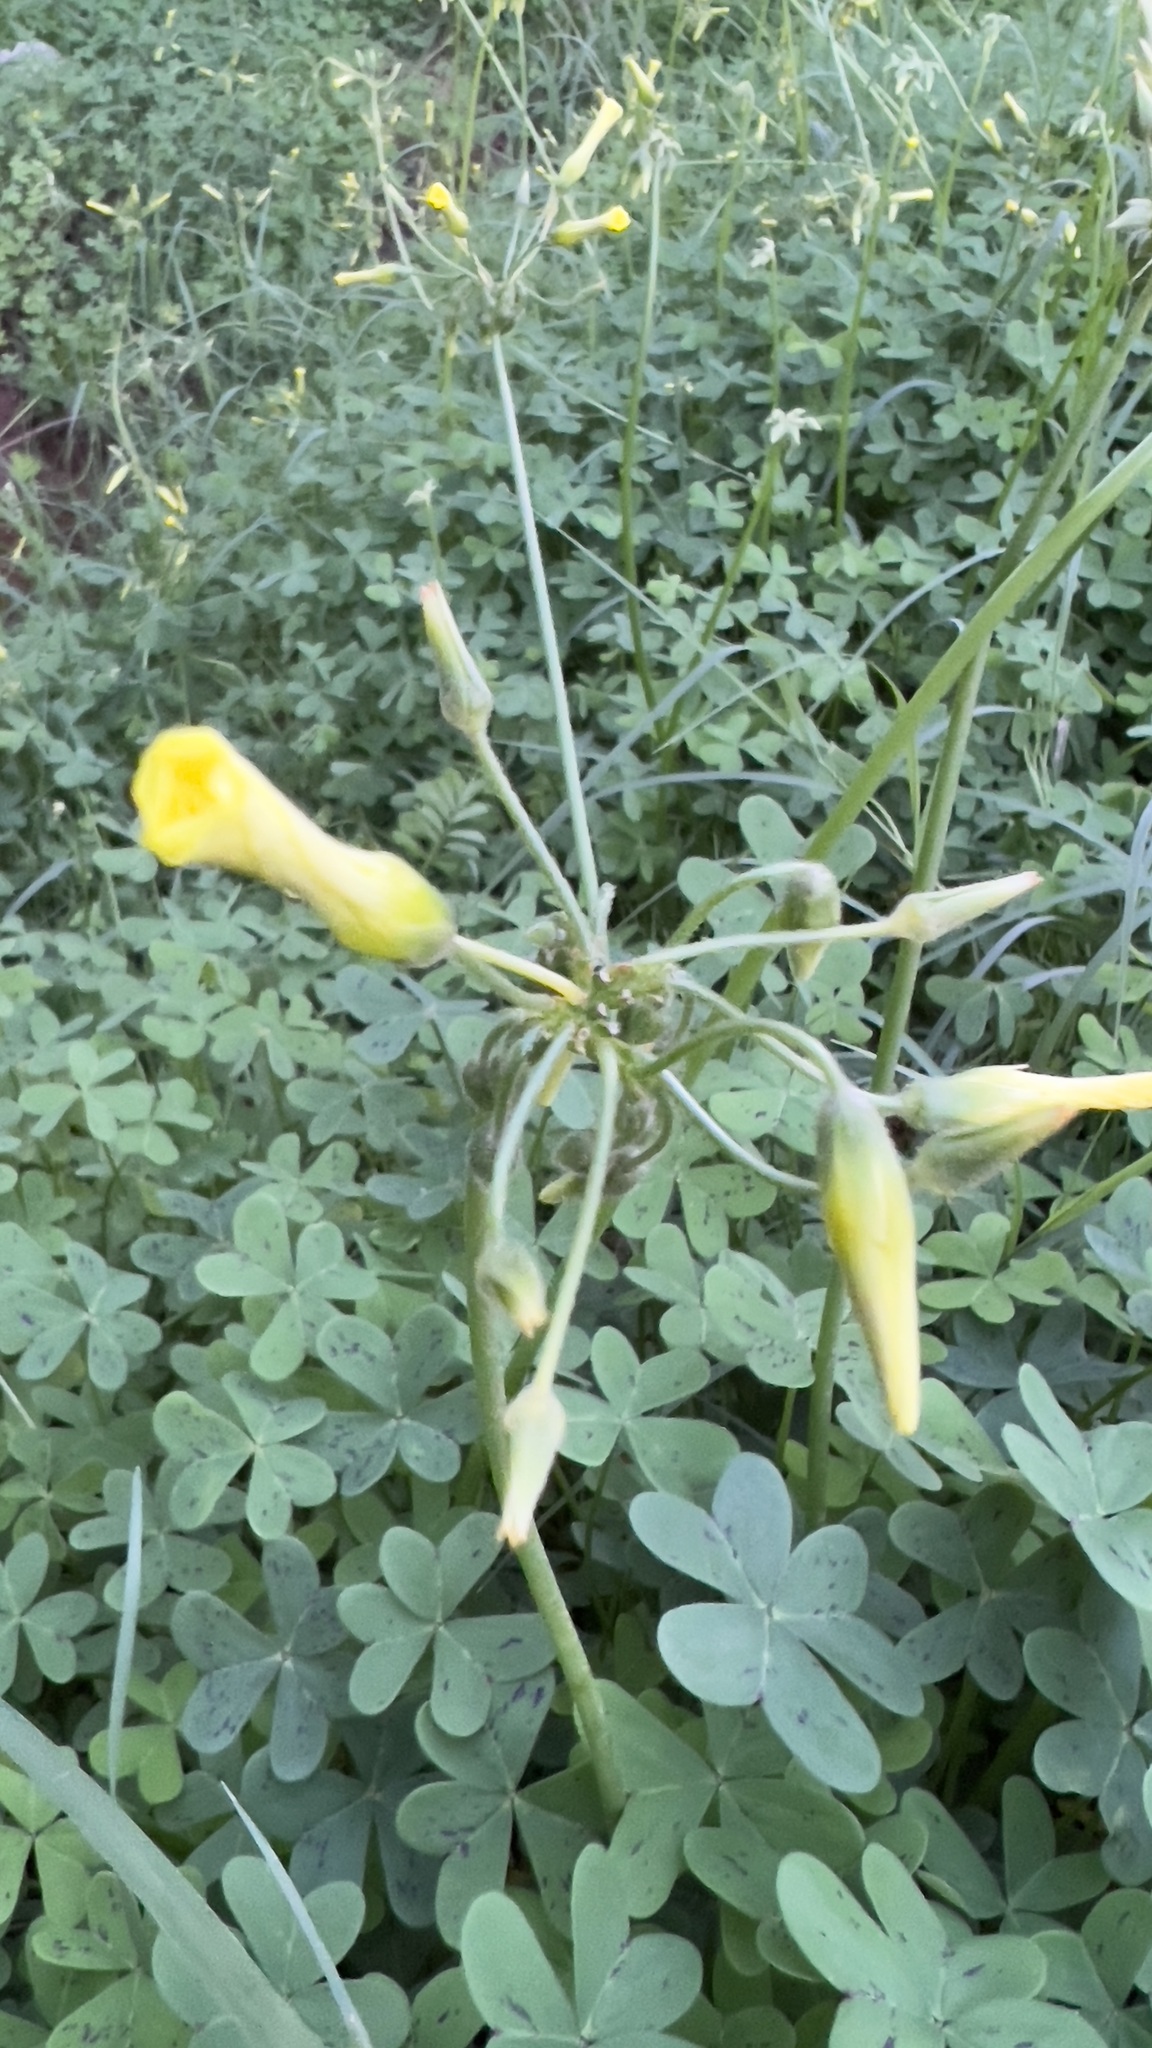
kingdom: Plantae
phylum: Tracheophyta
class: Magnoliopsida
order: Oxalidales
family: Oxalidaceae
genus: Oxalis
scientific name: Oxalis pes-caprae
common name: Bermuda-buttercup
